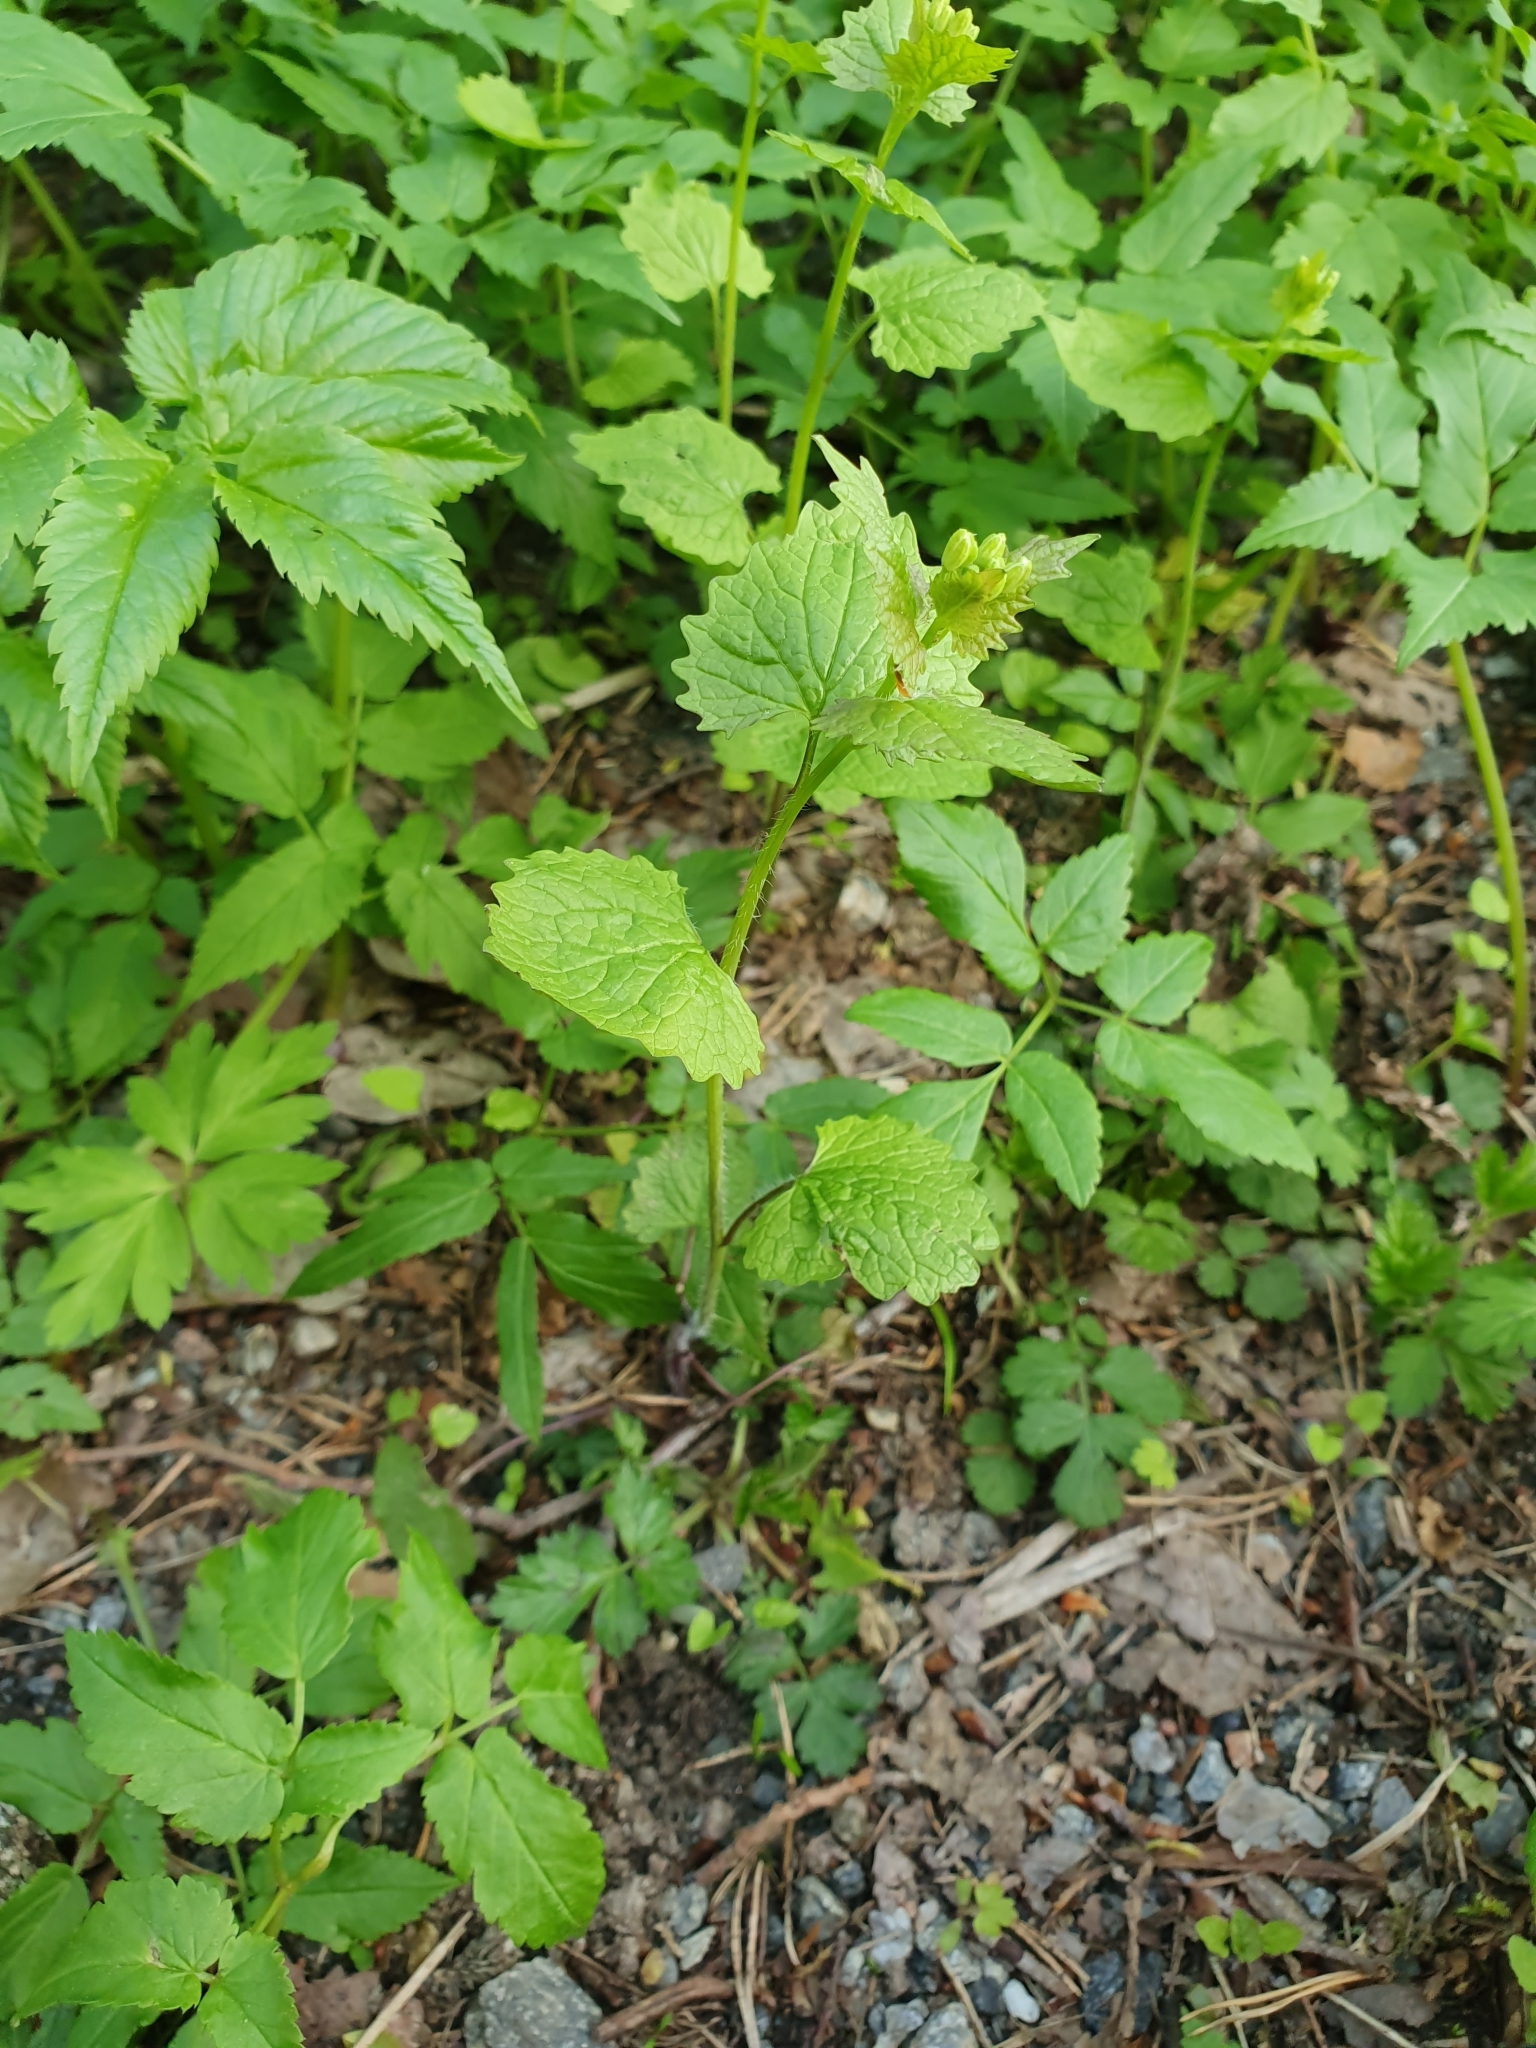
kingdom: Plantae
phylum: Tracheophyta
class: Magnoliopsida
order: Brassicales
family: Brassicaceae
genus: Alliaria
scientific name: Alliaria petiolata
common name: Garlic mustard
